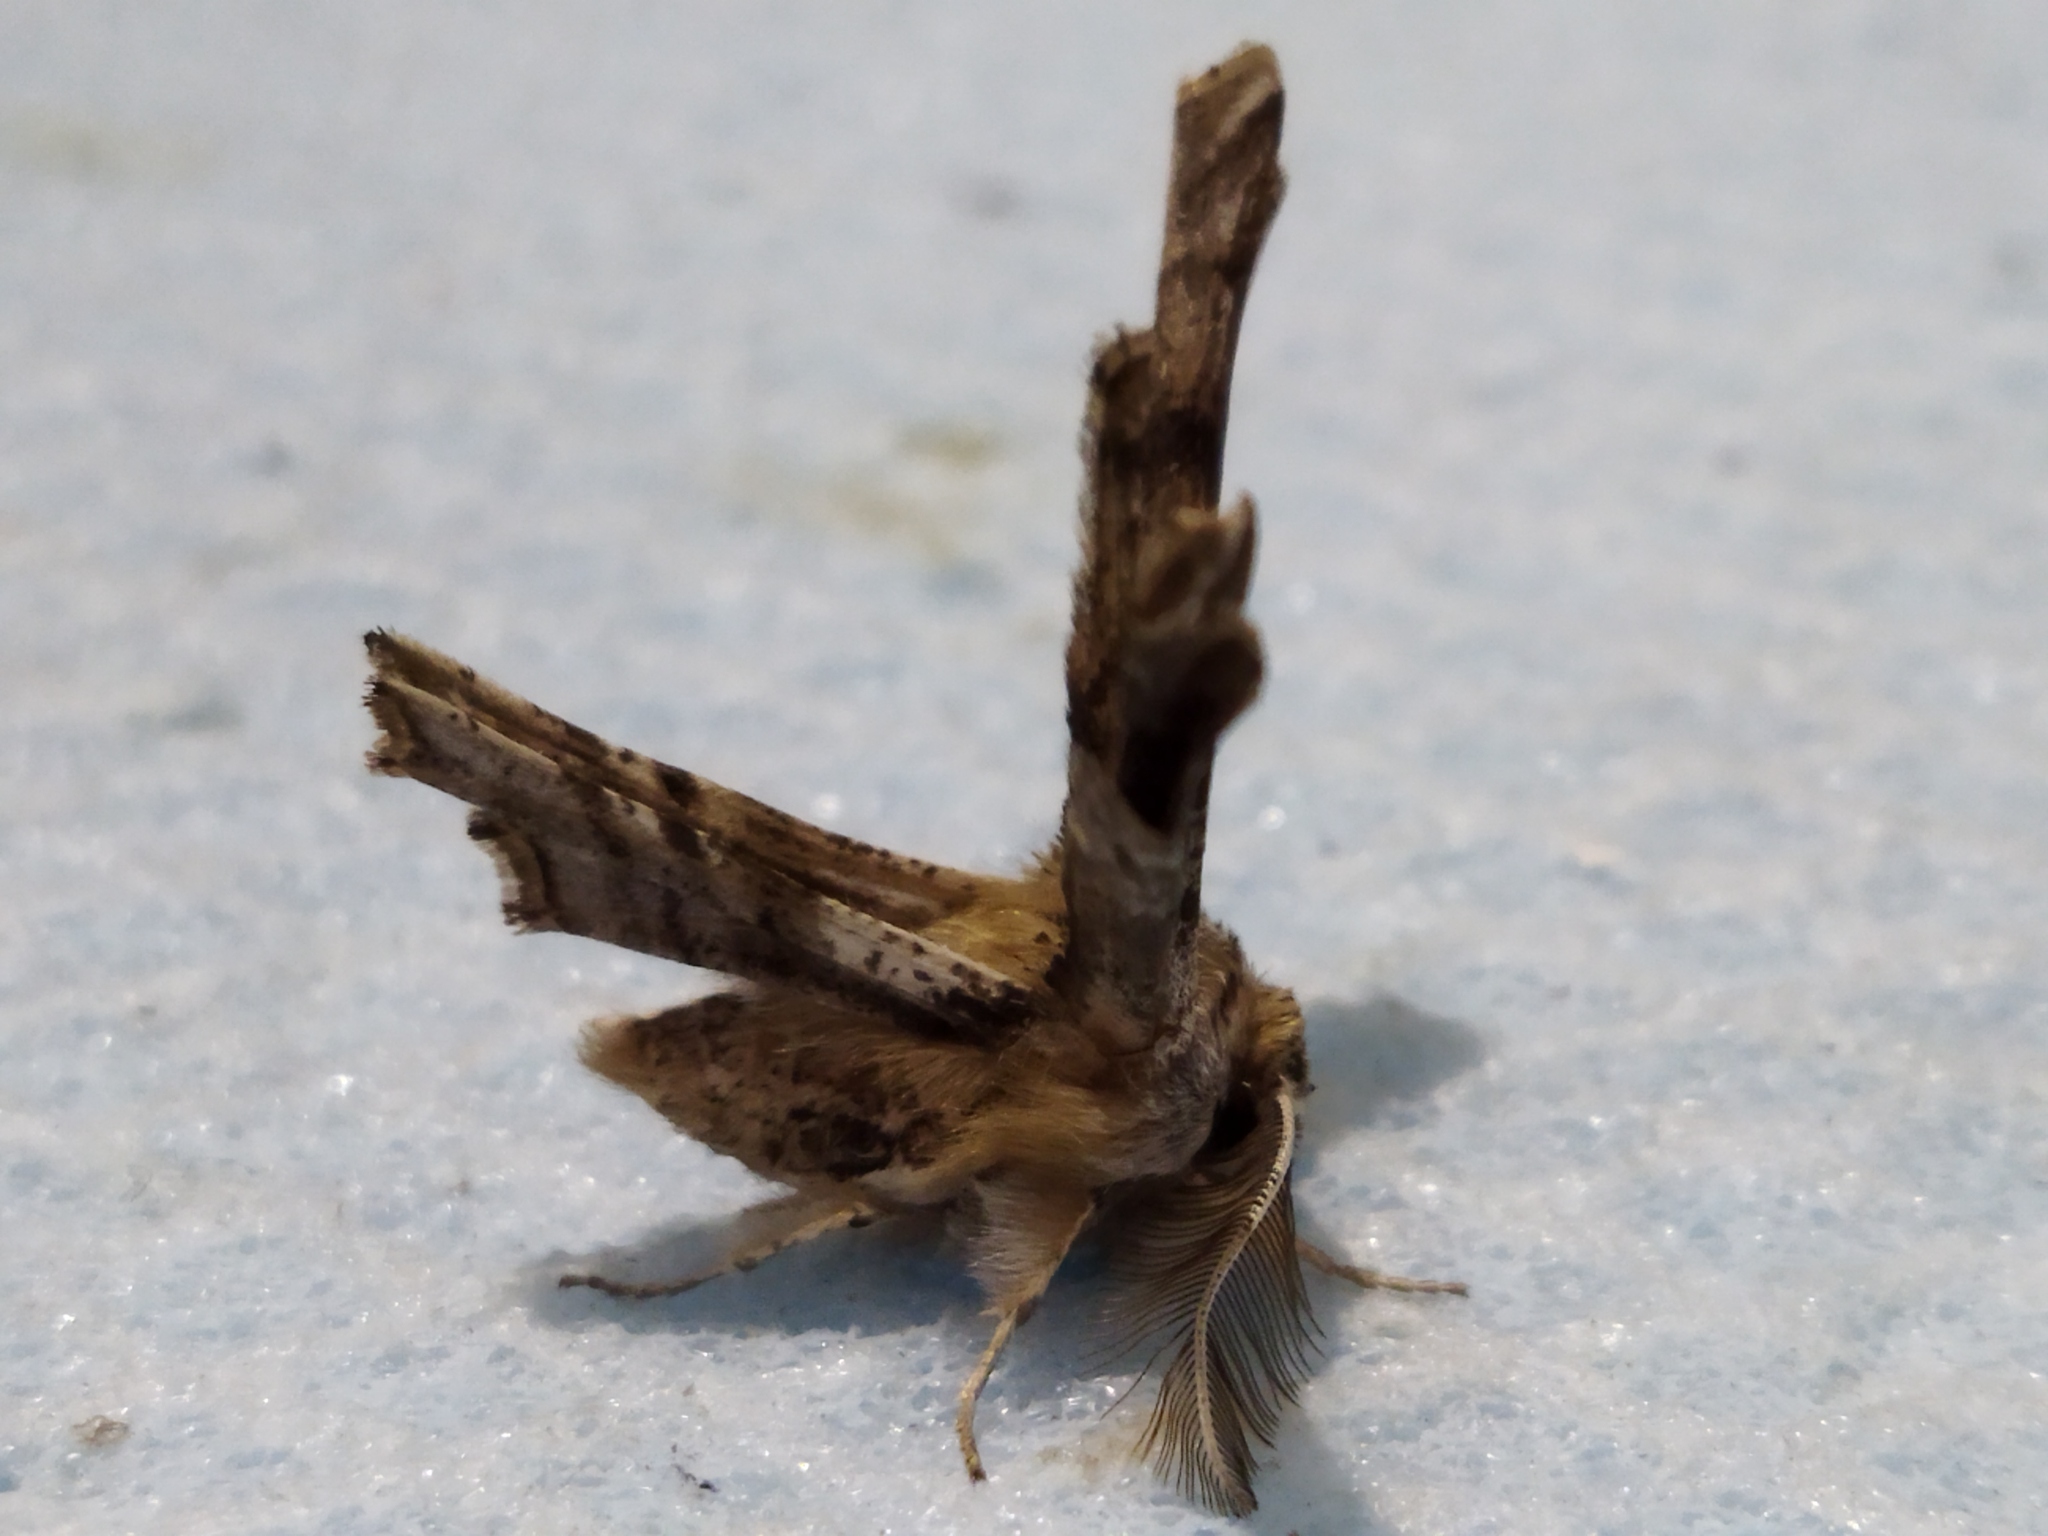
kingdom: Animalia
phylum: Arthropoda
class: Insecta
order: Lepidoptera
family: Geometridae
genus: Apochima
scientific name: Apochima flabellaria
